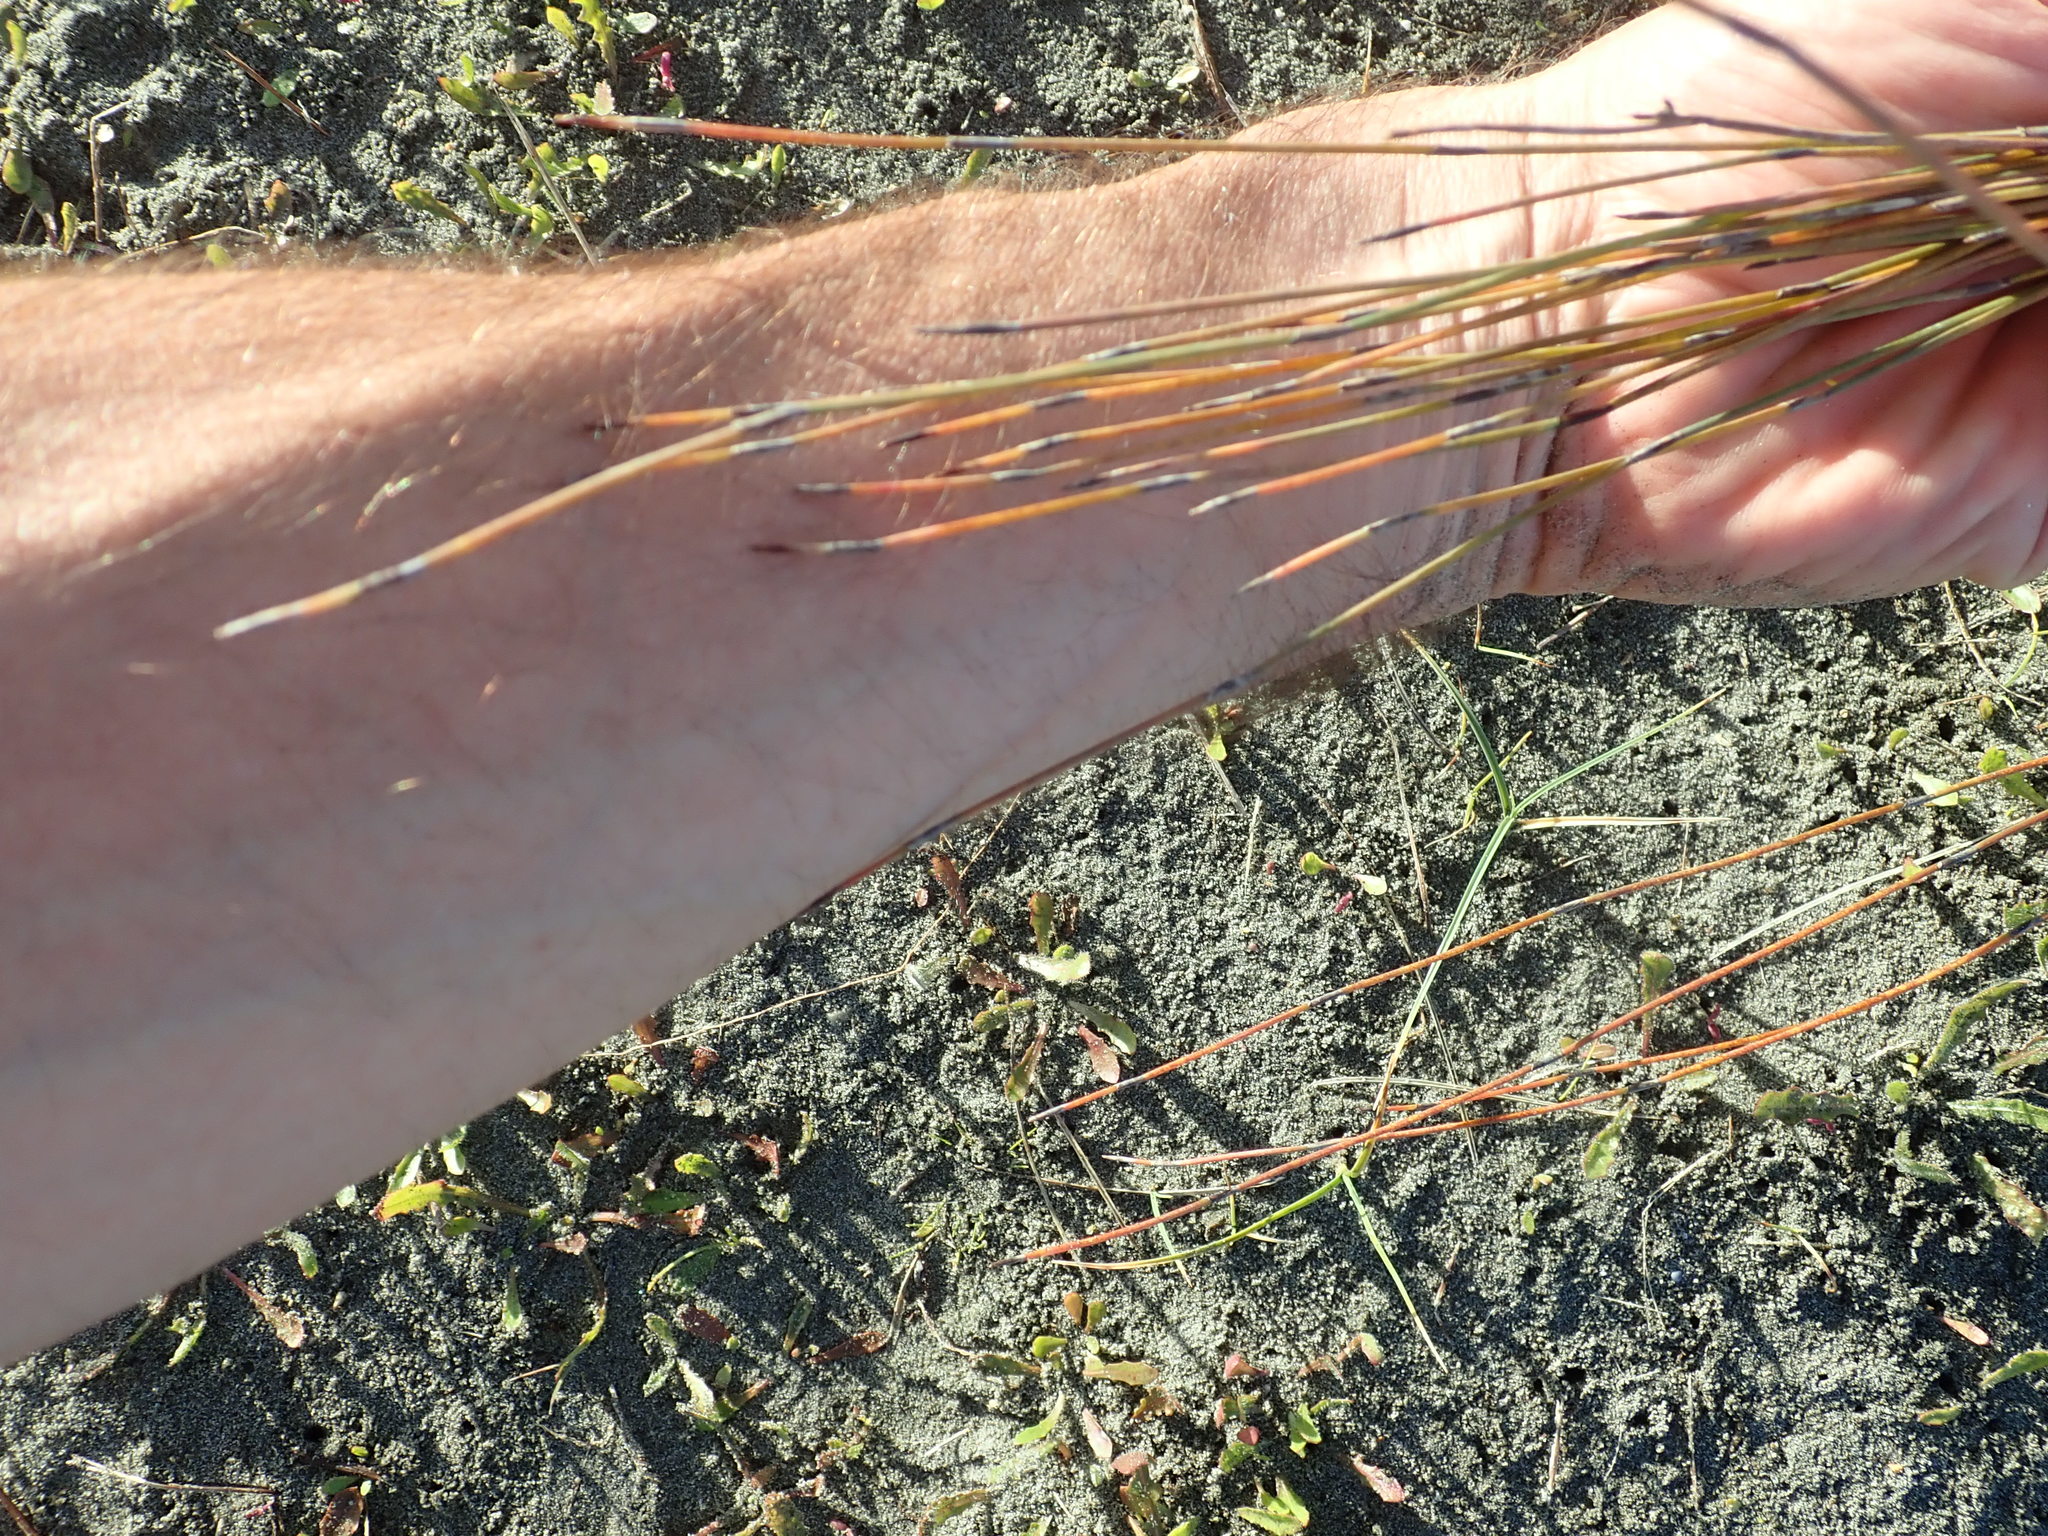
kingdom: Plantae
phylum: Tracheophyta
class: Liliopsida
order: Poales
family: Restionaceae
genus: Apodasmia
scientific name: Apodasmia similis
